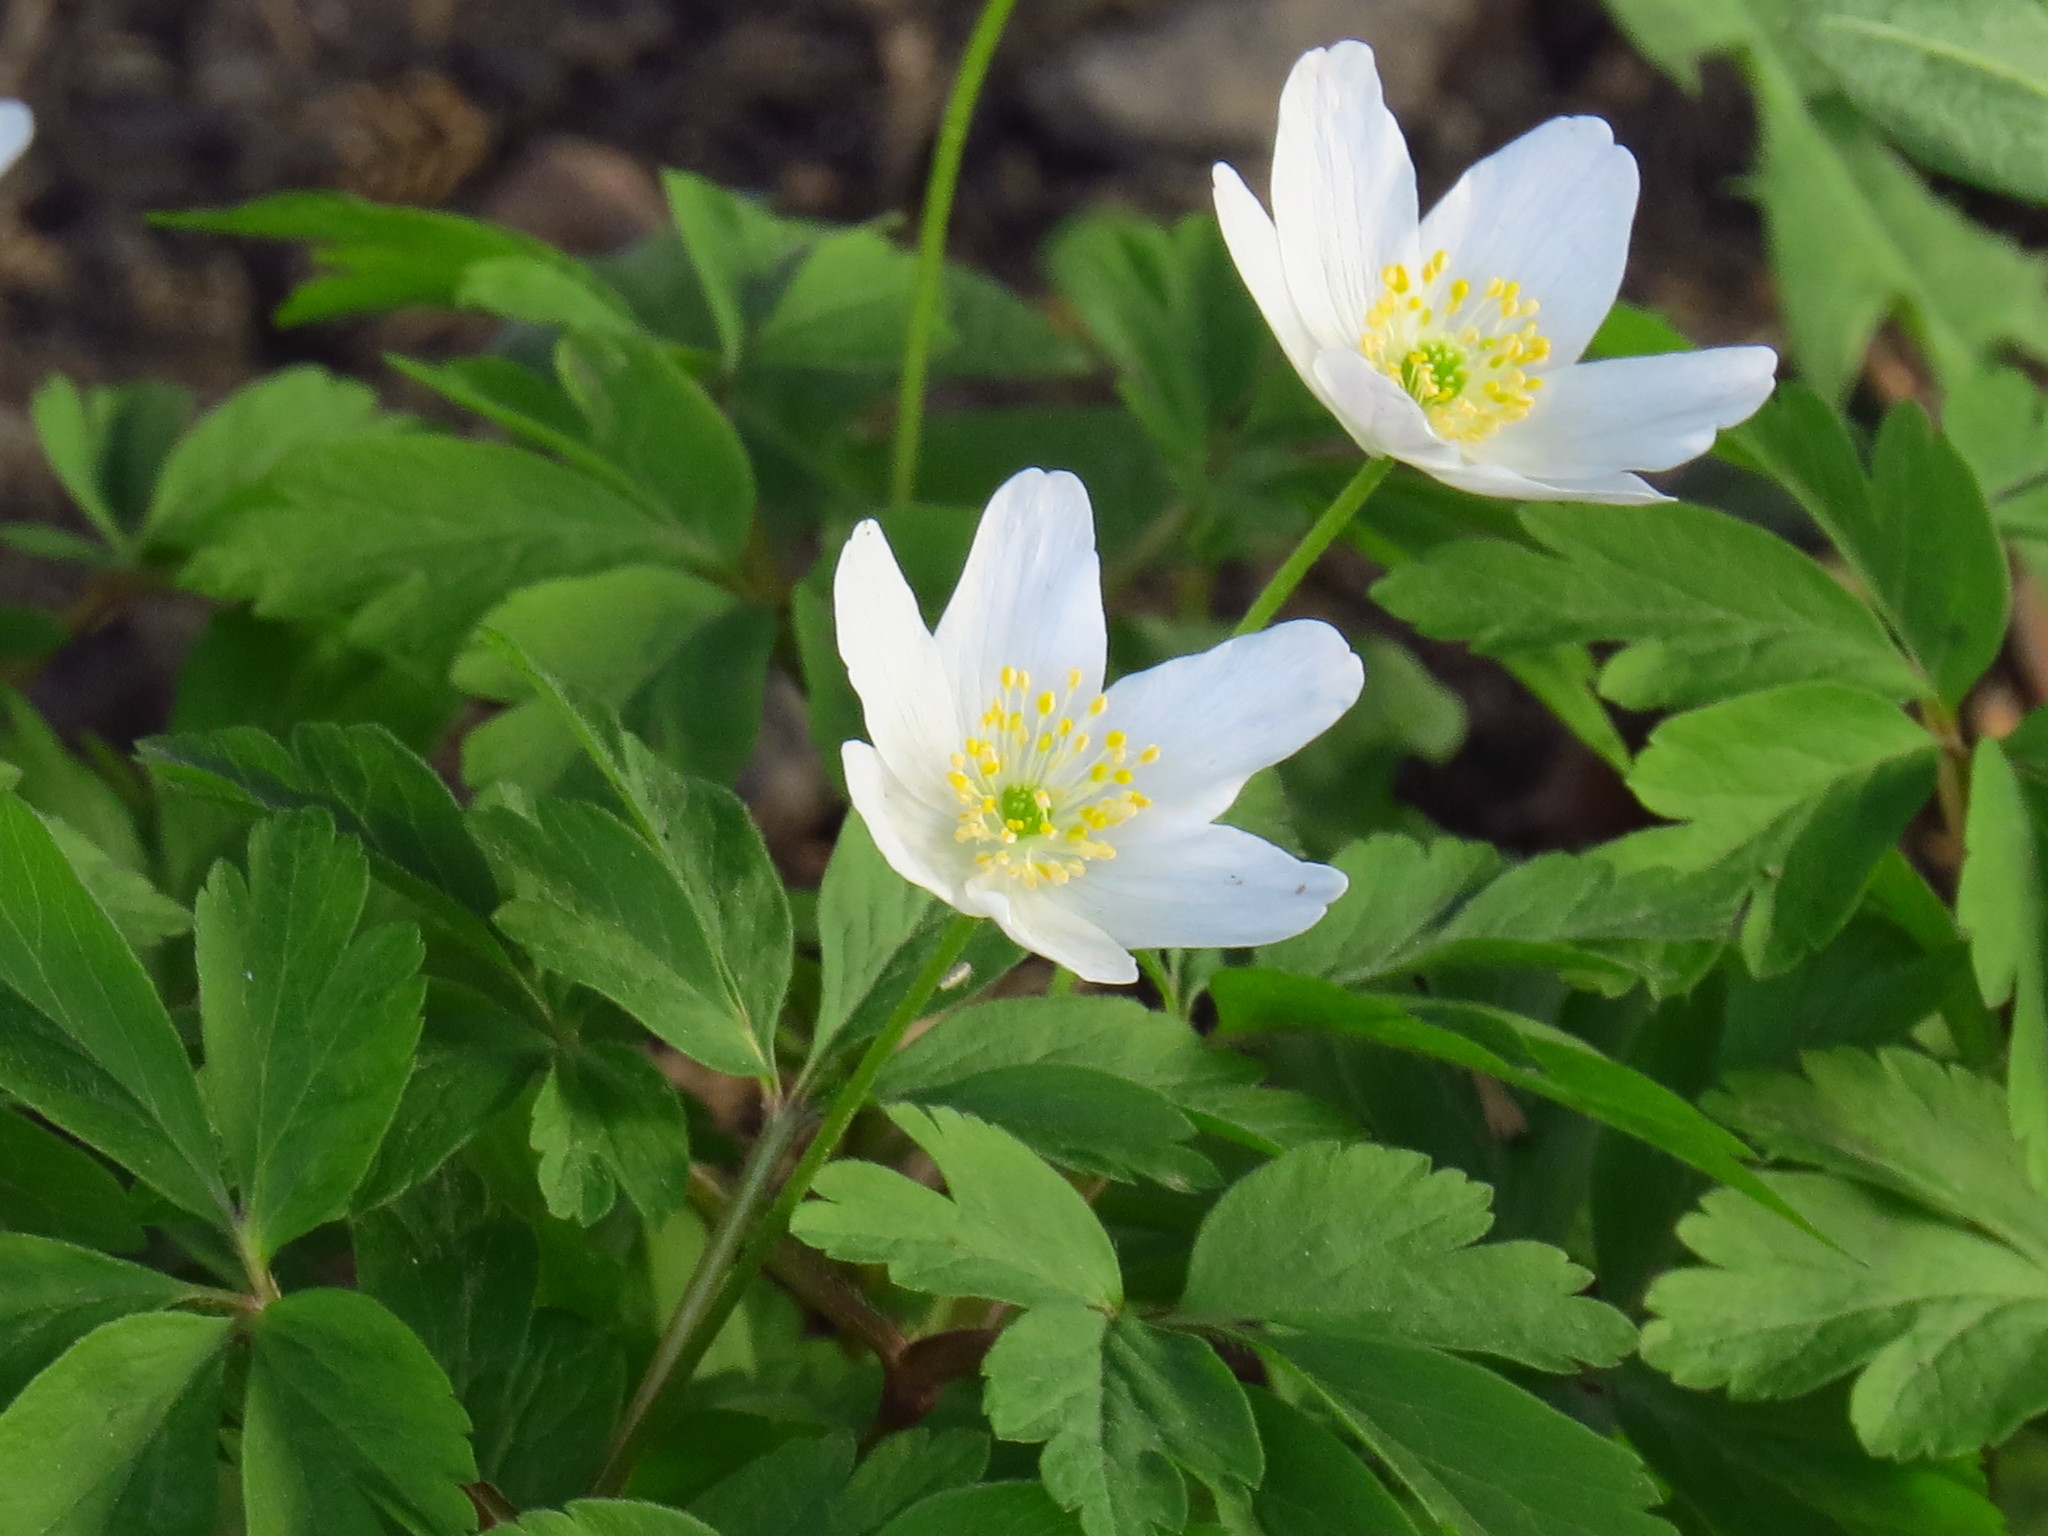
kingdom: Plantae
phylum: Tracheophyta
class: Magnoliopsida
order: Ranunculales
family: Ranunculaceae
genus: Anemone
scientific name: Anemone nemorosa
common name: Wood anemone
